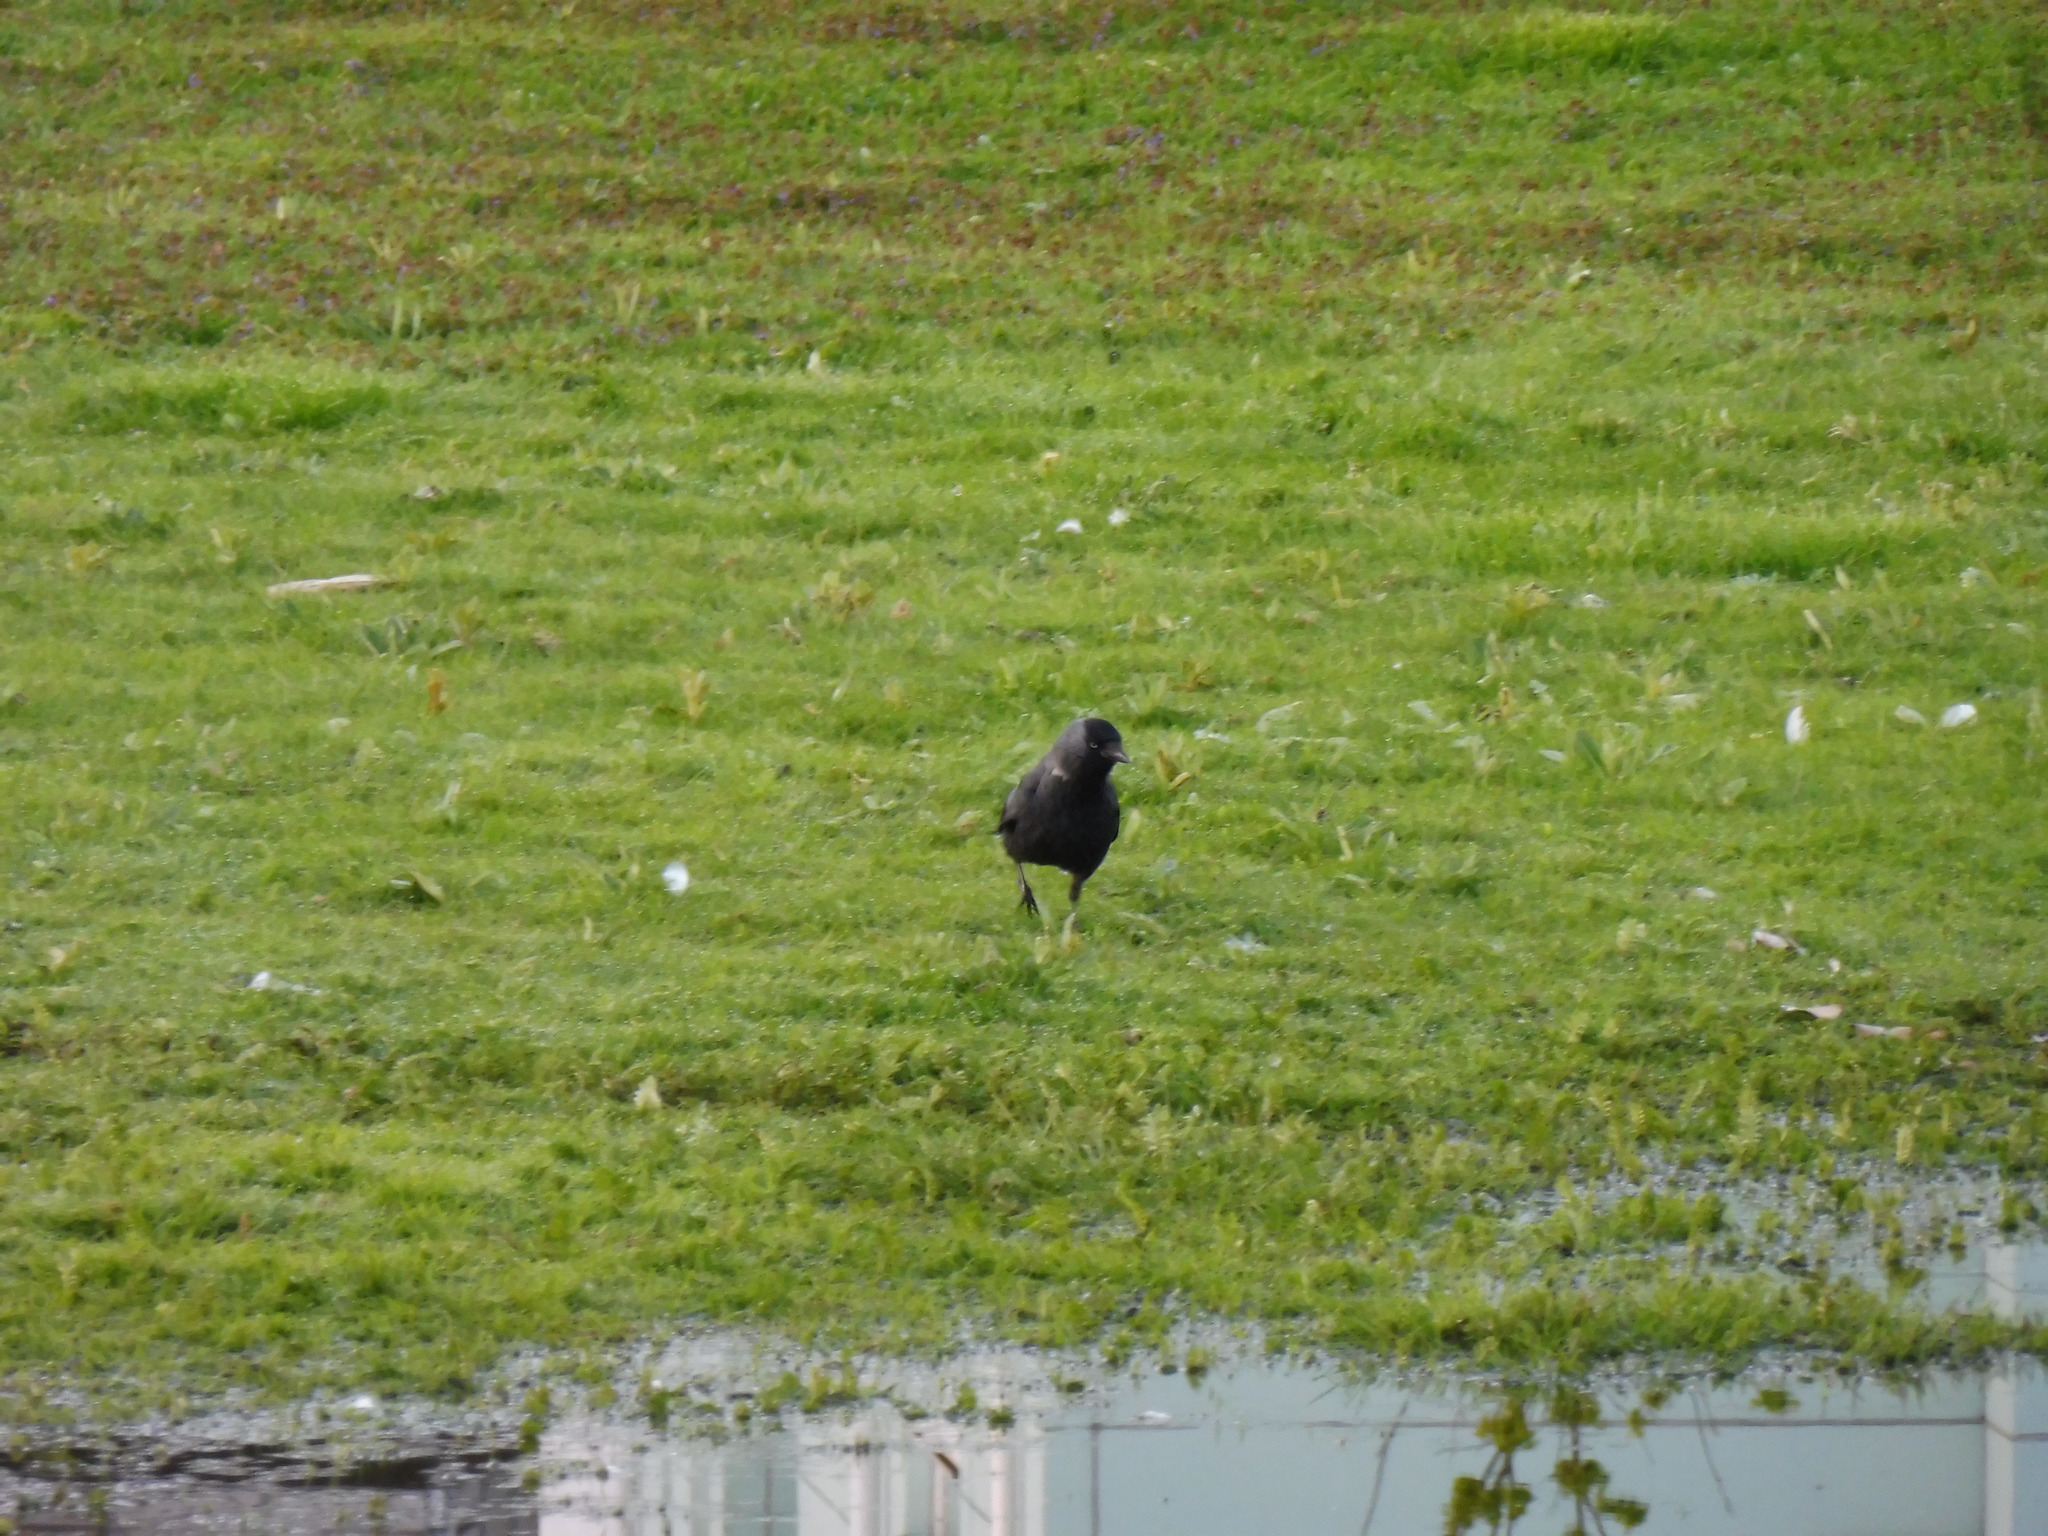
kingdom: Animalia
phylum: Chordata
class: Aves
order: Passeriformes
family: Corvidae
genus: Coloeus
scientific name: Coloeus monedula
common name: Western jackdaw
